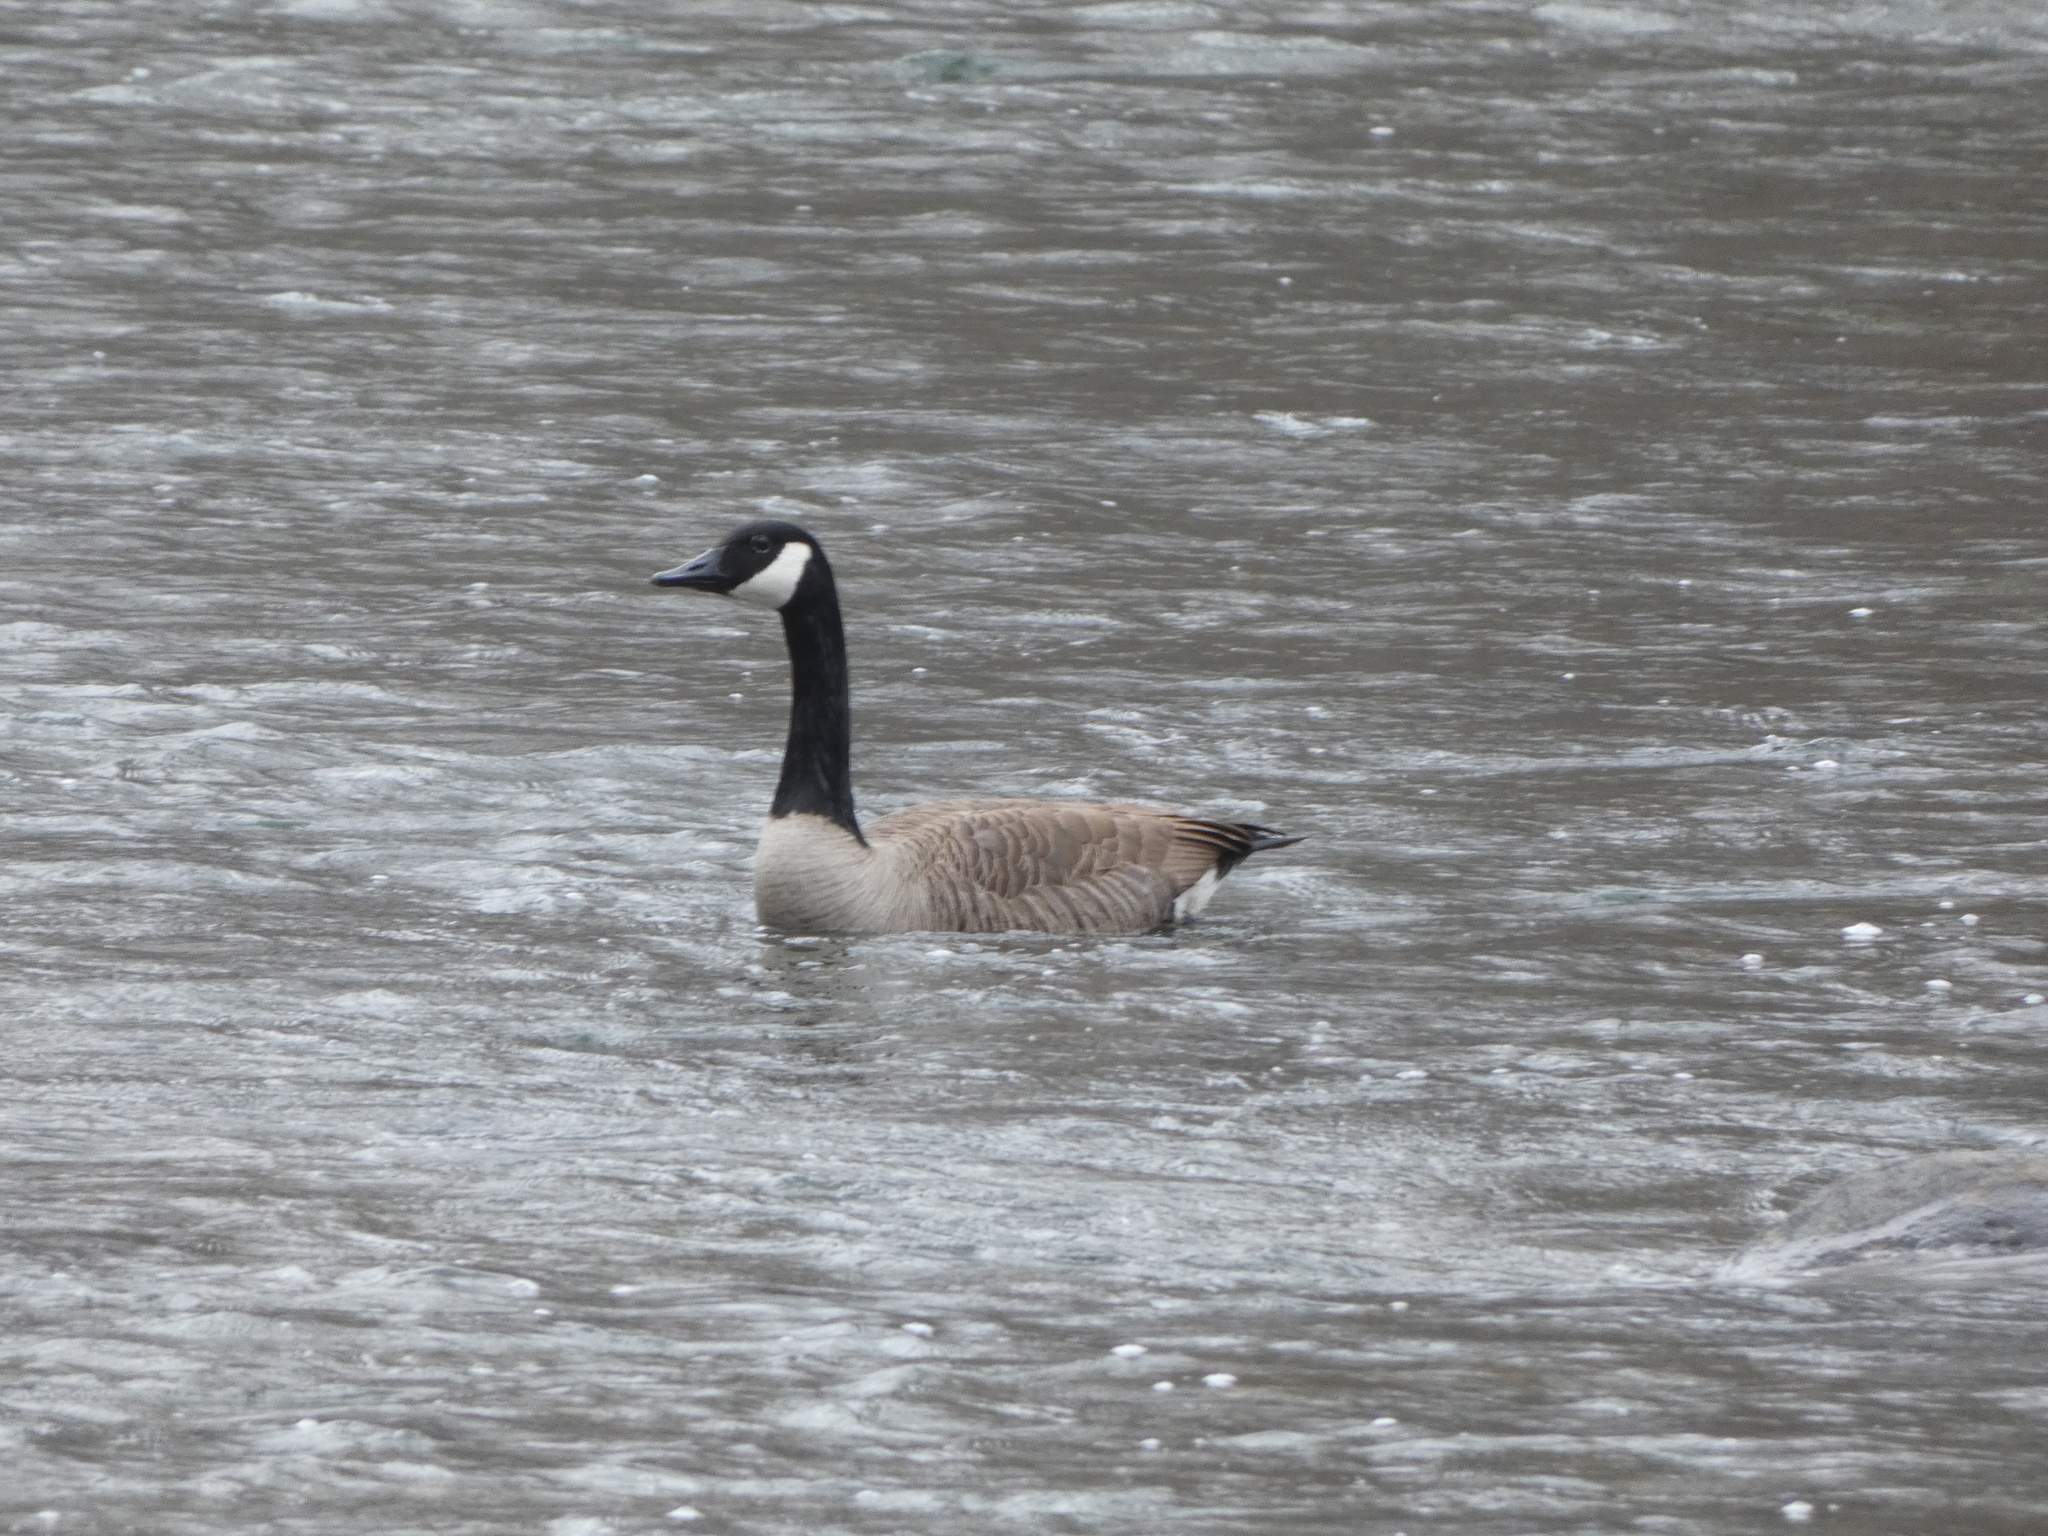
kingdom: Animalia
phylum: Chordata
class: Aves
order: Anseriformes
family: Anatidae
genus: Branta
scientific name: Branta canadensis
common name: Canada goose
